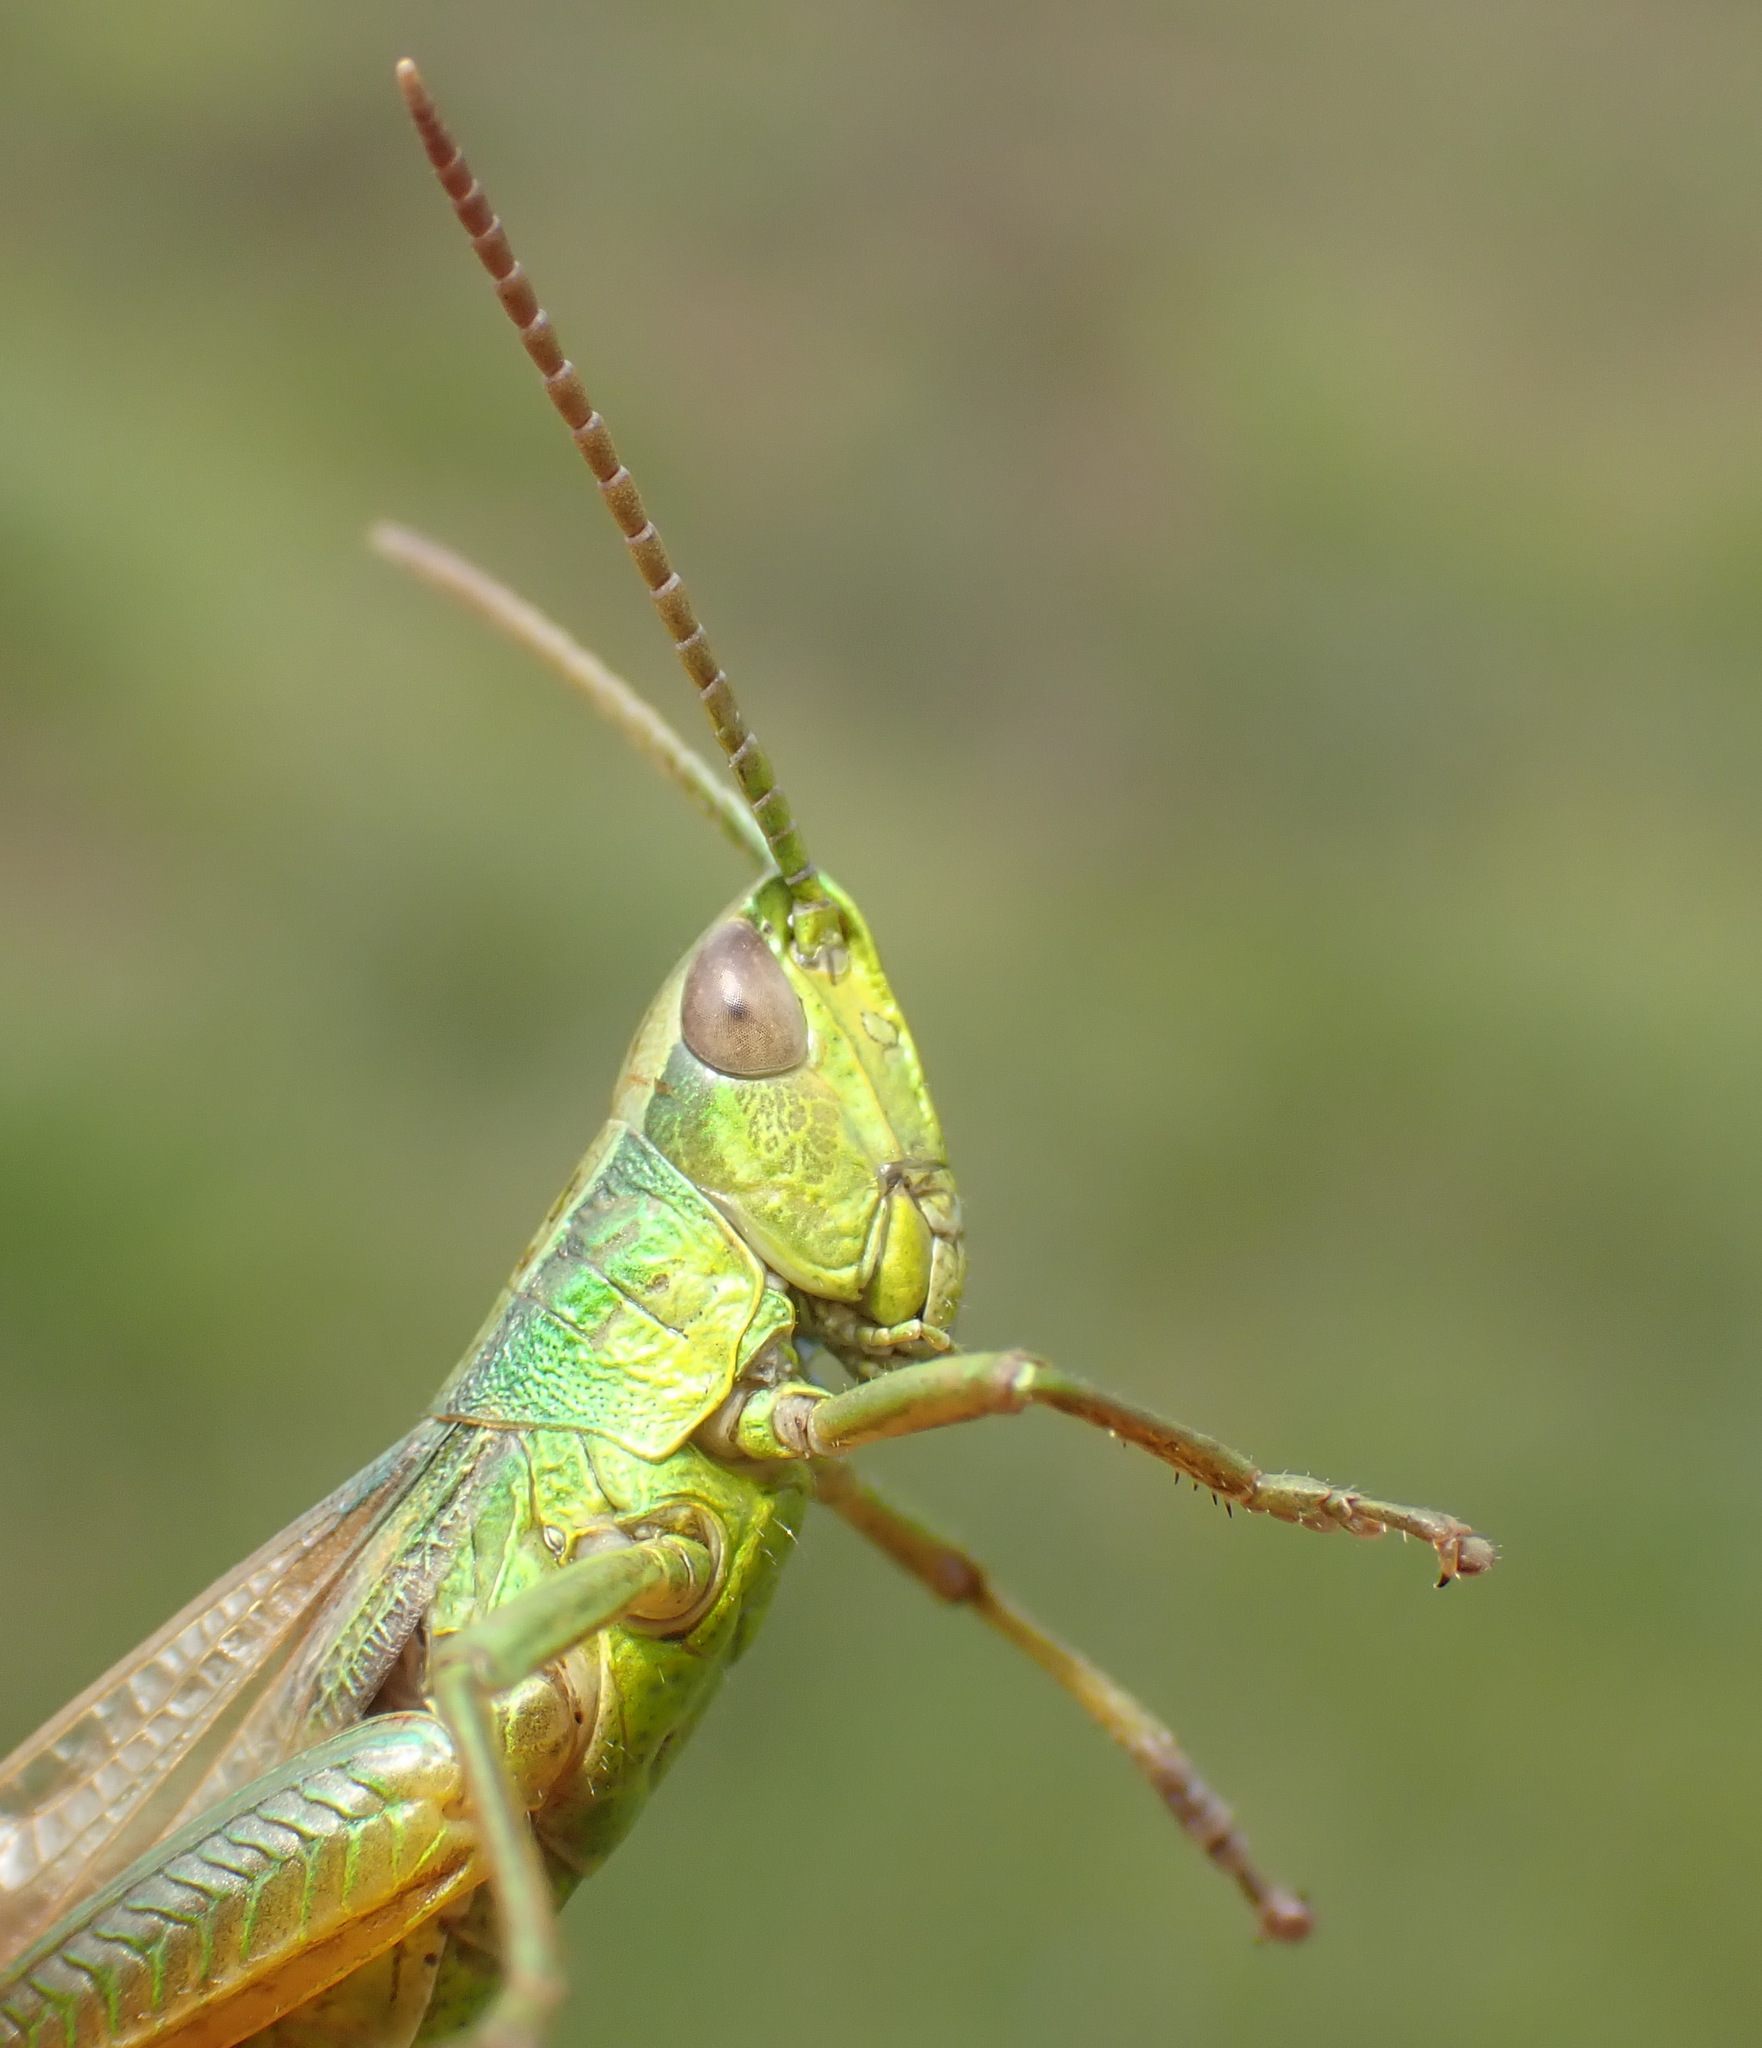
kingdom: Animalia
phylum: Arthropoda
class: Insecta
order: Orthoptera
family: Acrididae
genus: Chrysochraon
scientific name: Chrysochraon dispar
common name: Large gold grasshopper
